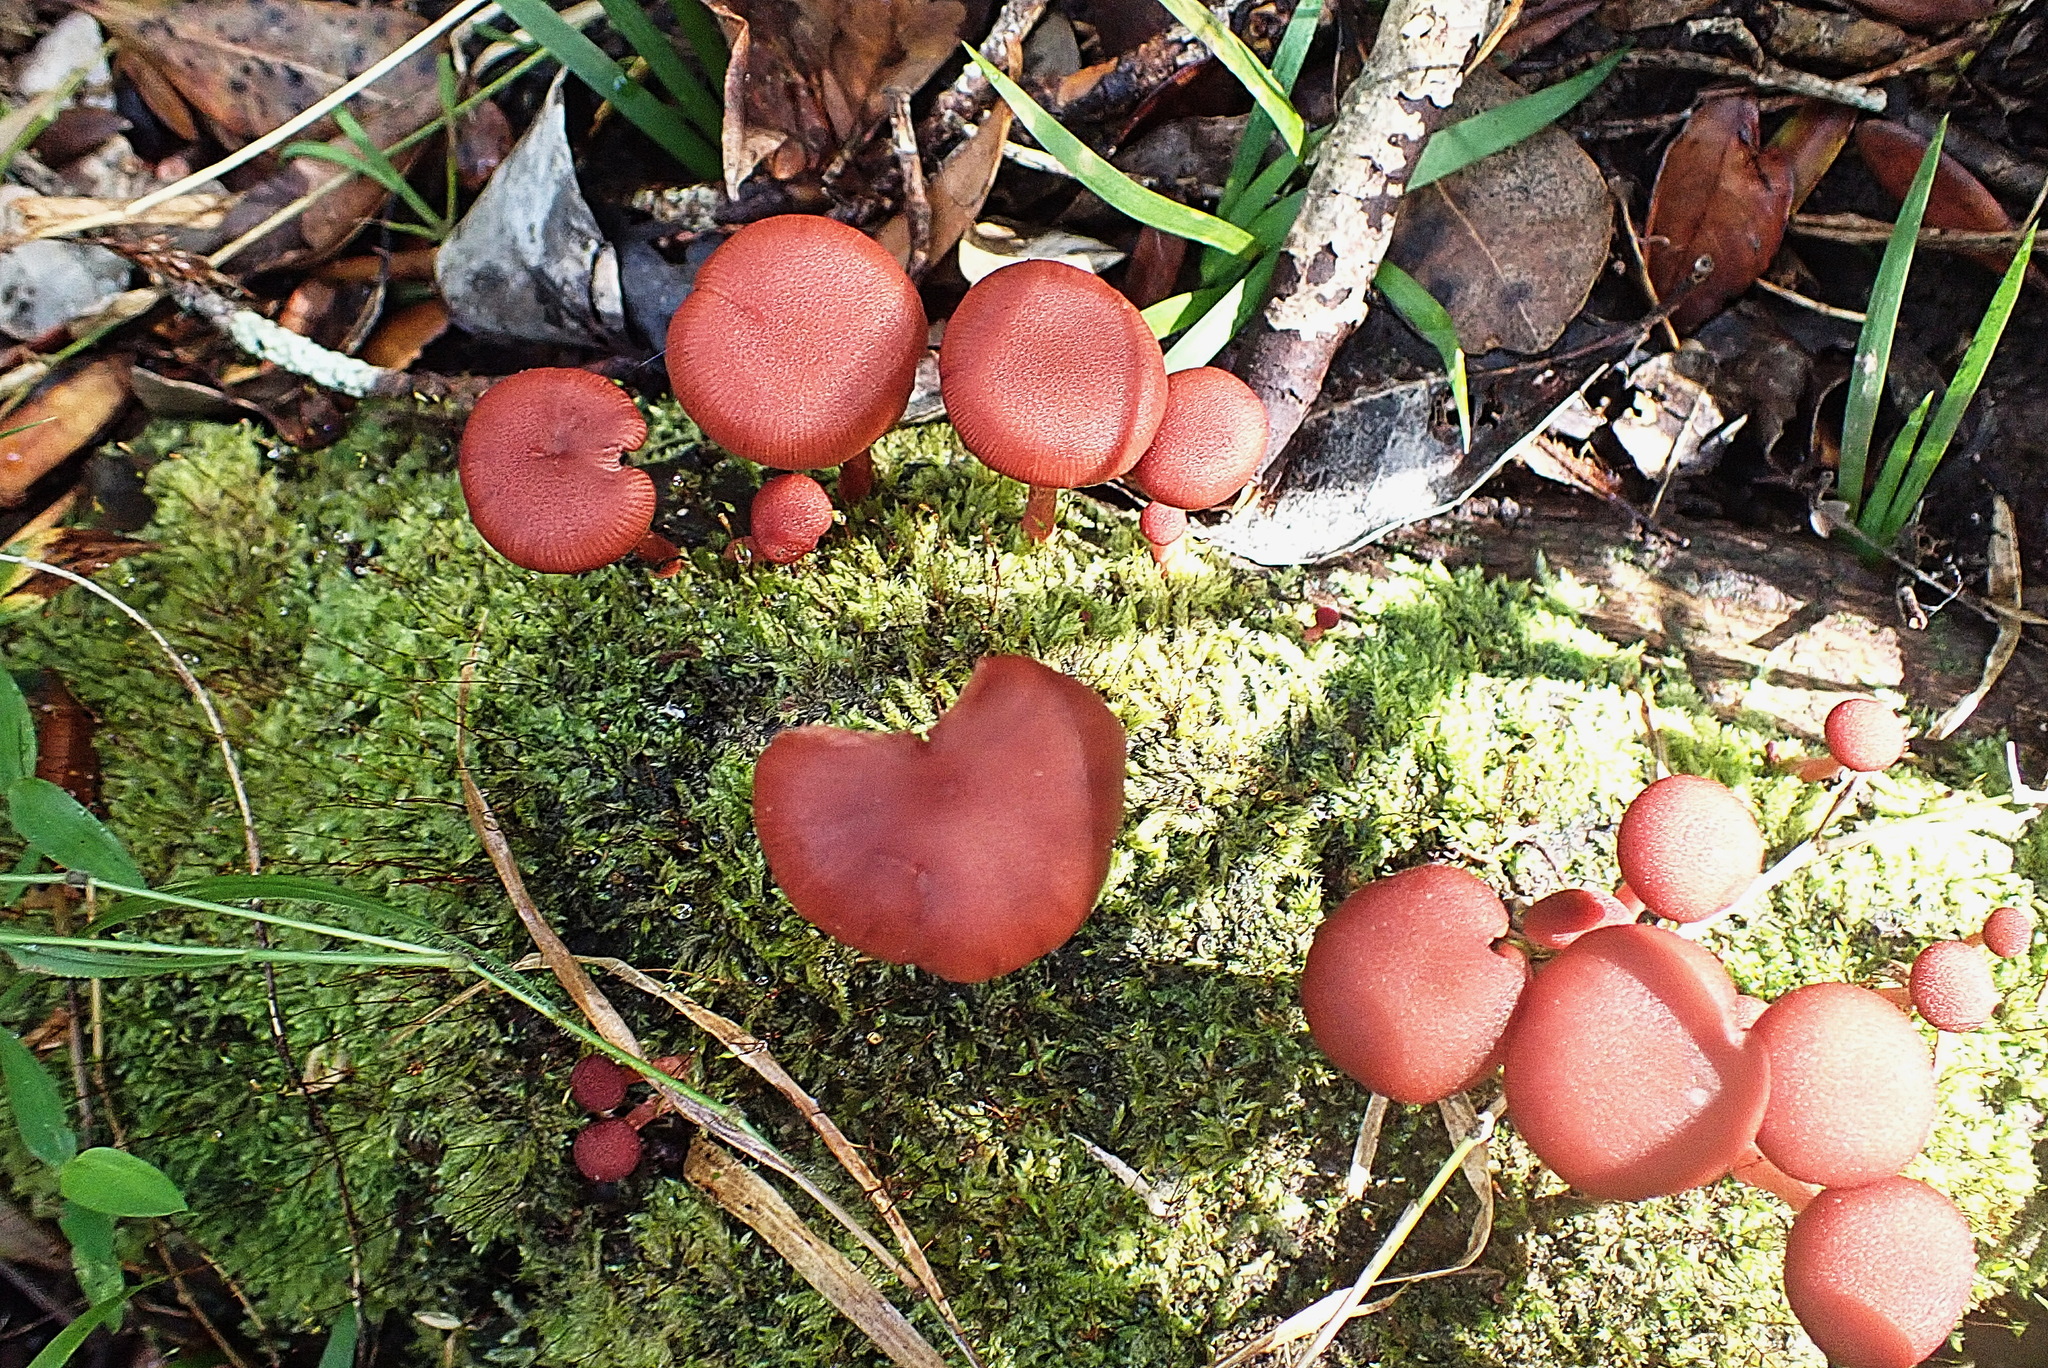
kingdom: Fungi
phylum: Basidiomycota
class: Agaricomycetes
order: Agaricales
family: Tubariaceae
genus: Tubaria
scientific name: Tubaria rufofulva
